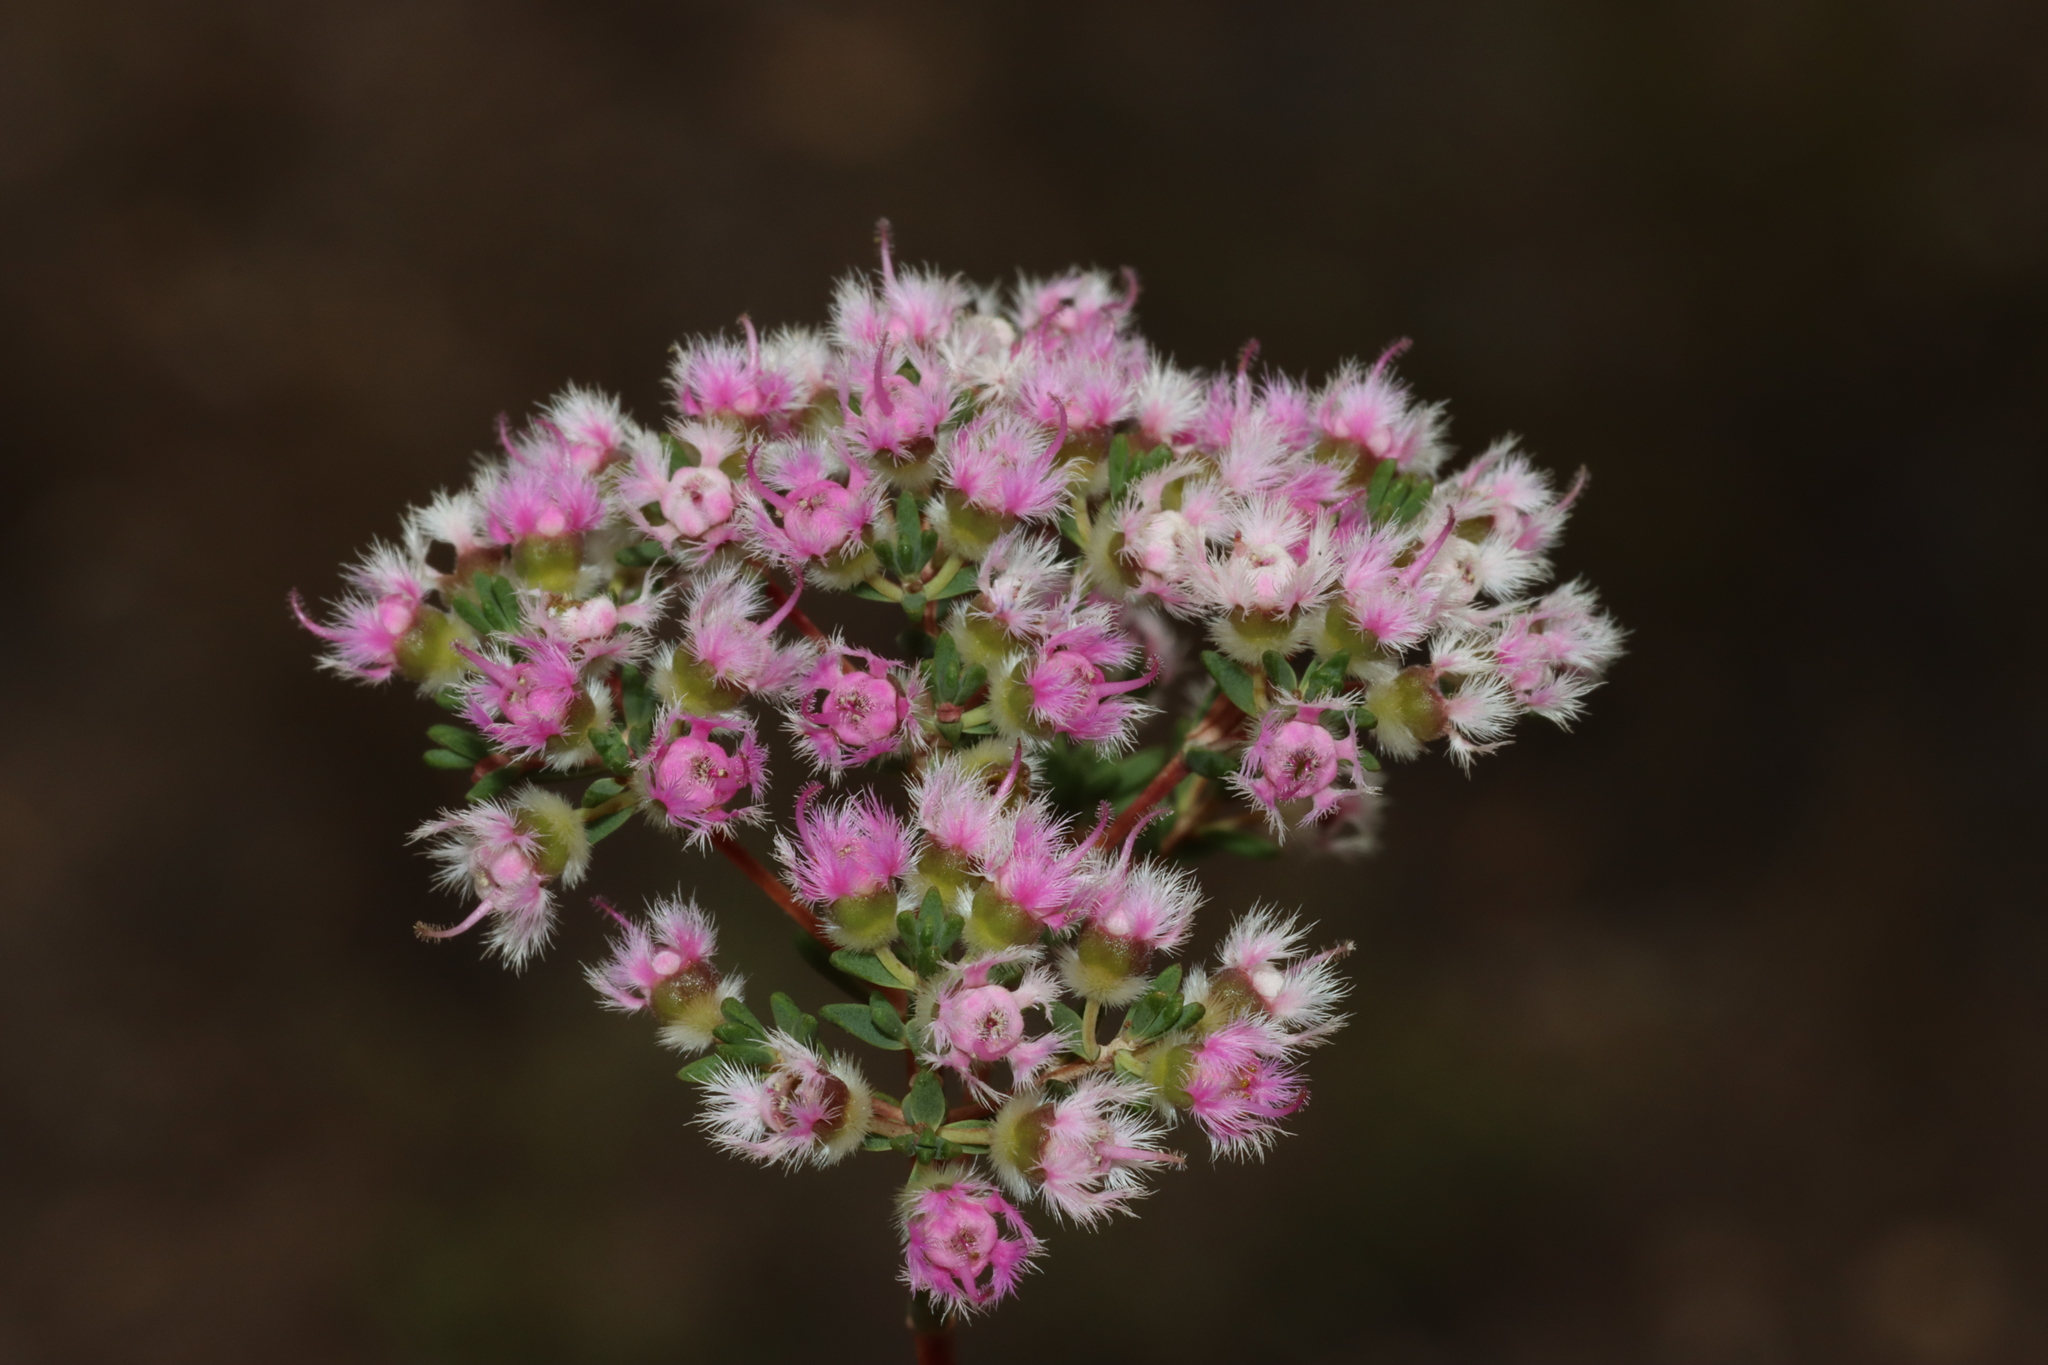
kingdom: Plantae
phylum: Tracheophyta
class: Magnoliopsida
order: Myrtales
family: Myrtaceae
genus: Verticordia
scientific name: Verticordia densiflora
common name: Compact feather-flower
